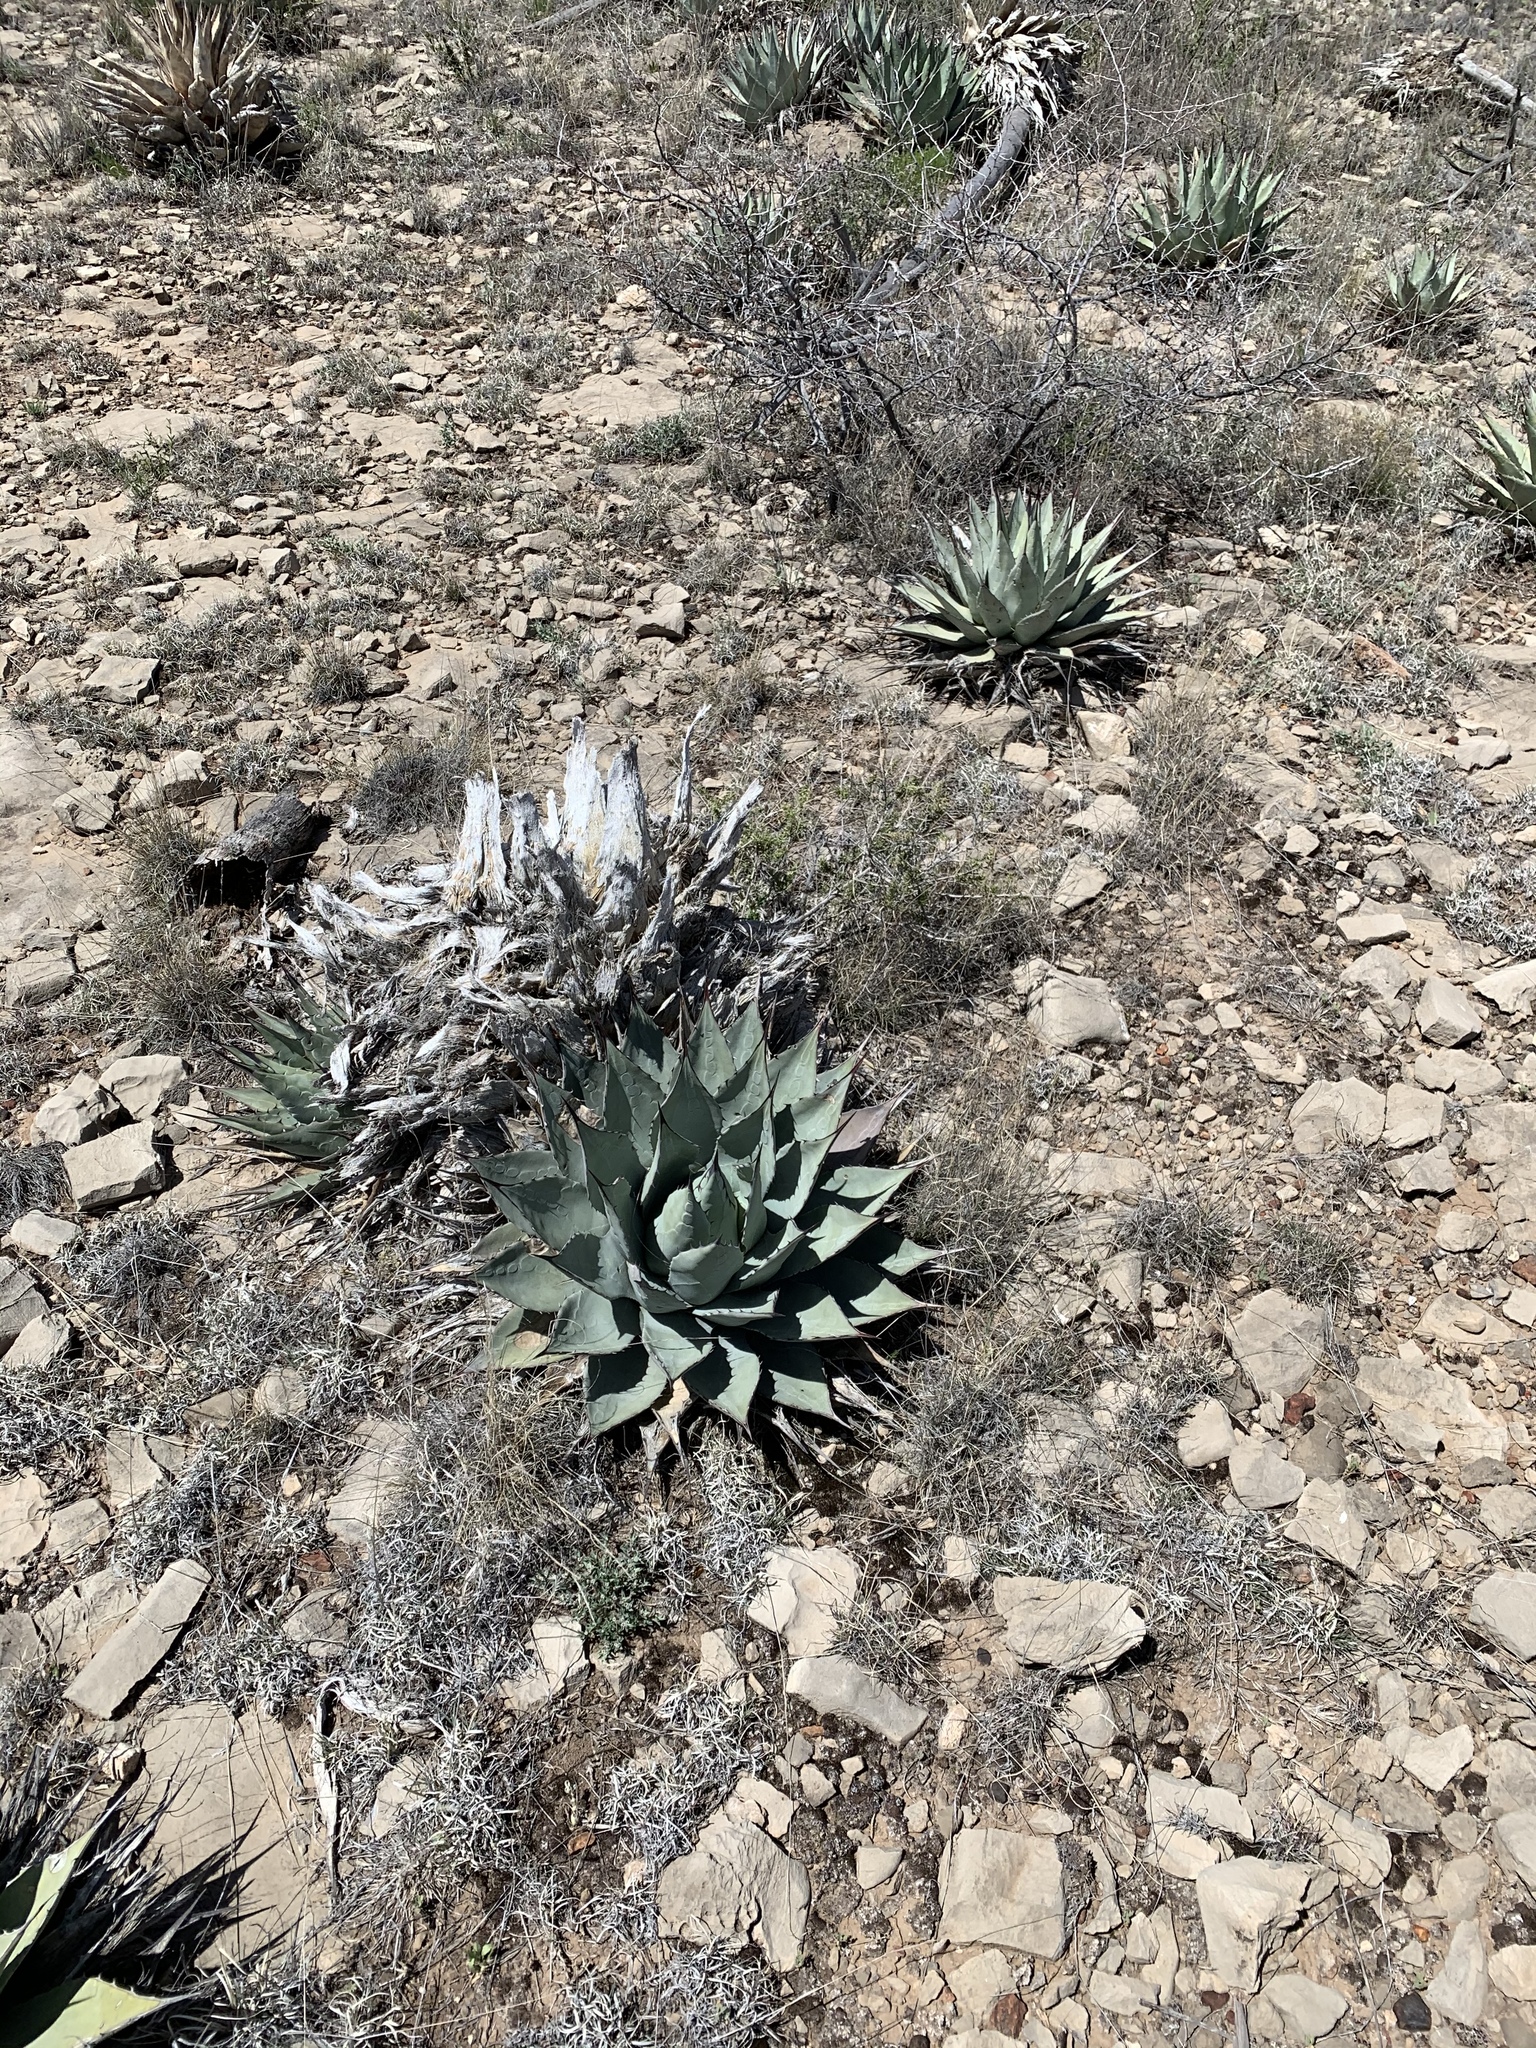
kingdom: Plantae
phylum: Tracheophyta
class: Liliopsida
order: Asparagales
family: Asparagaceae
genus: Agave
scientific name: Agave parryi
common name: Parry's agave
